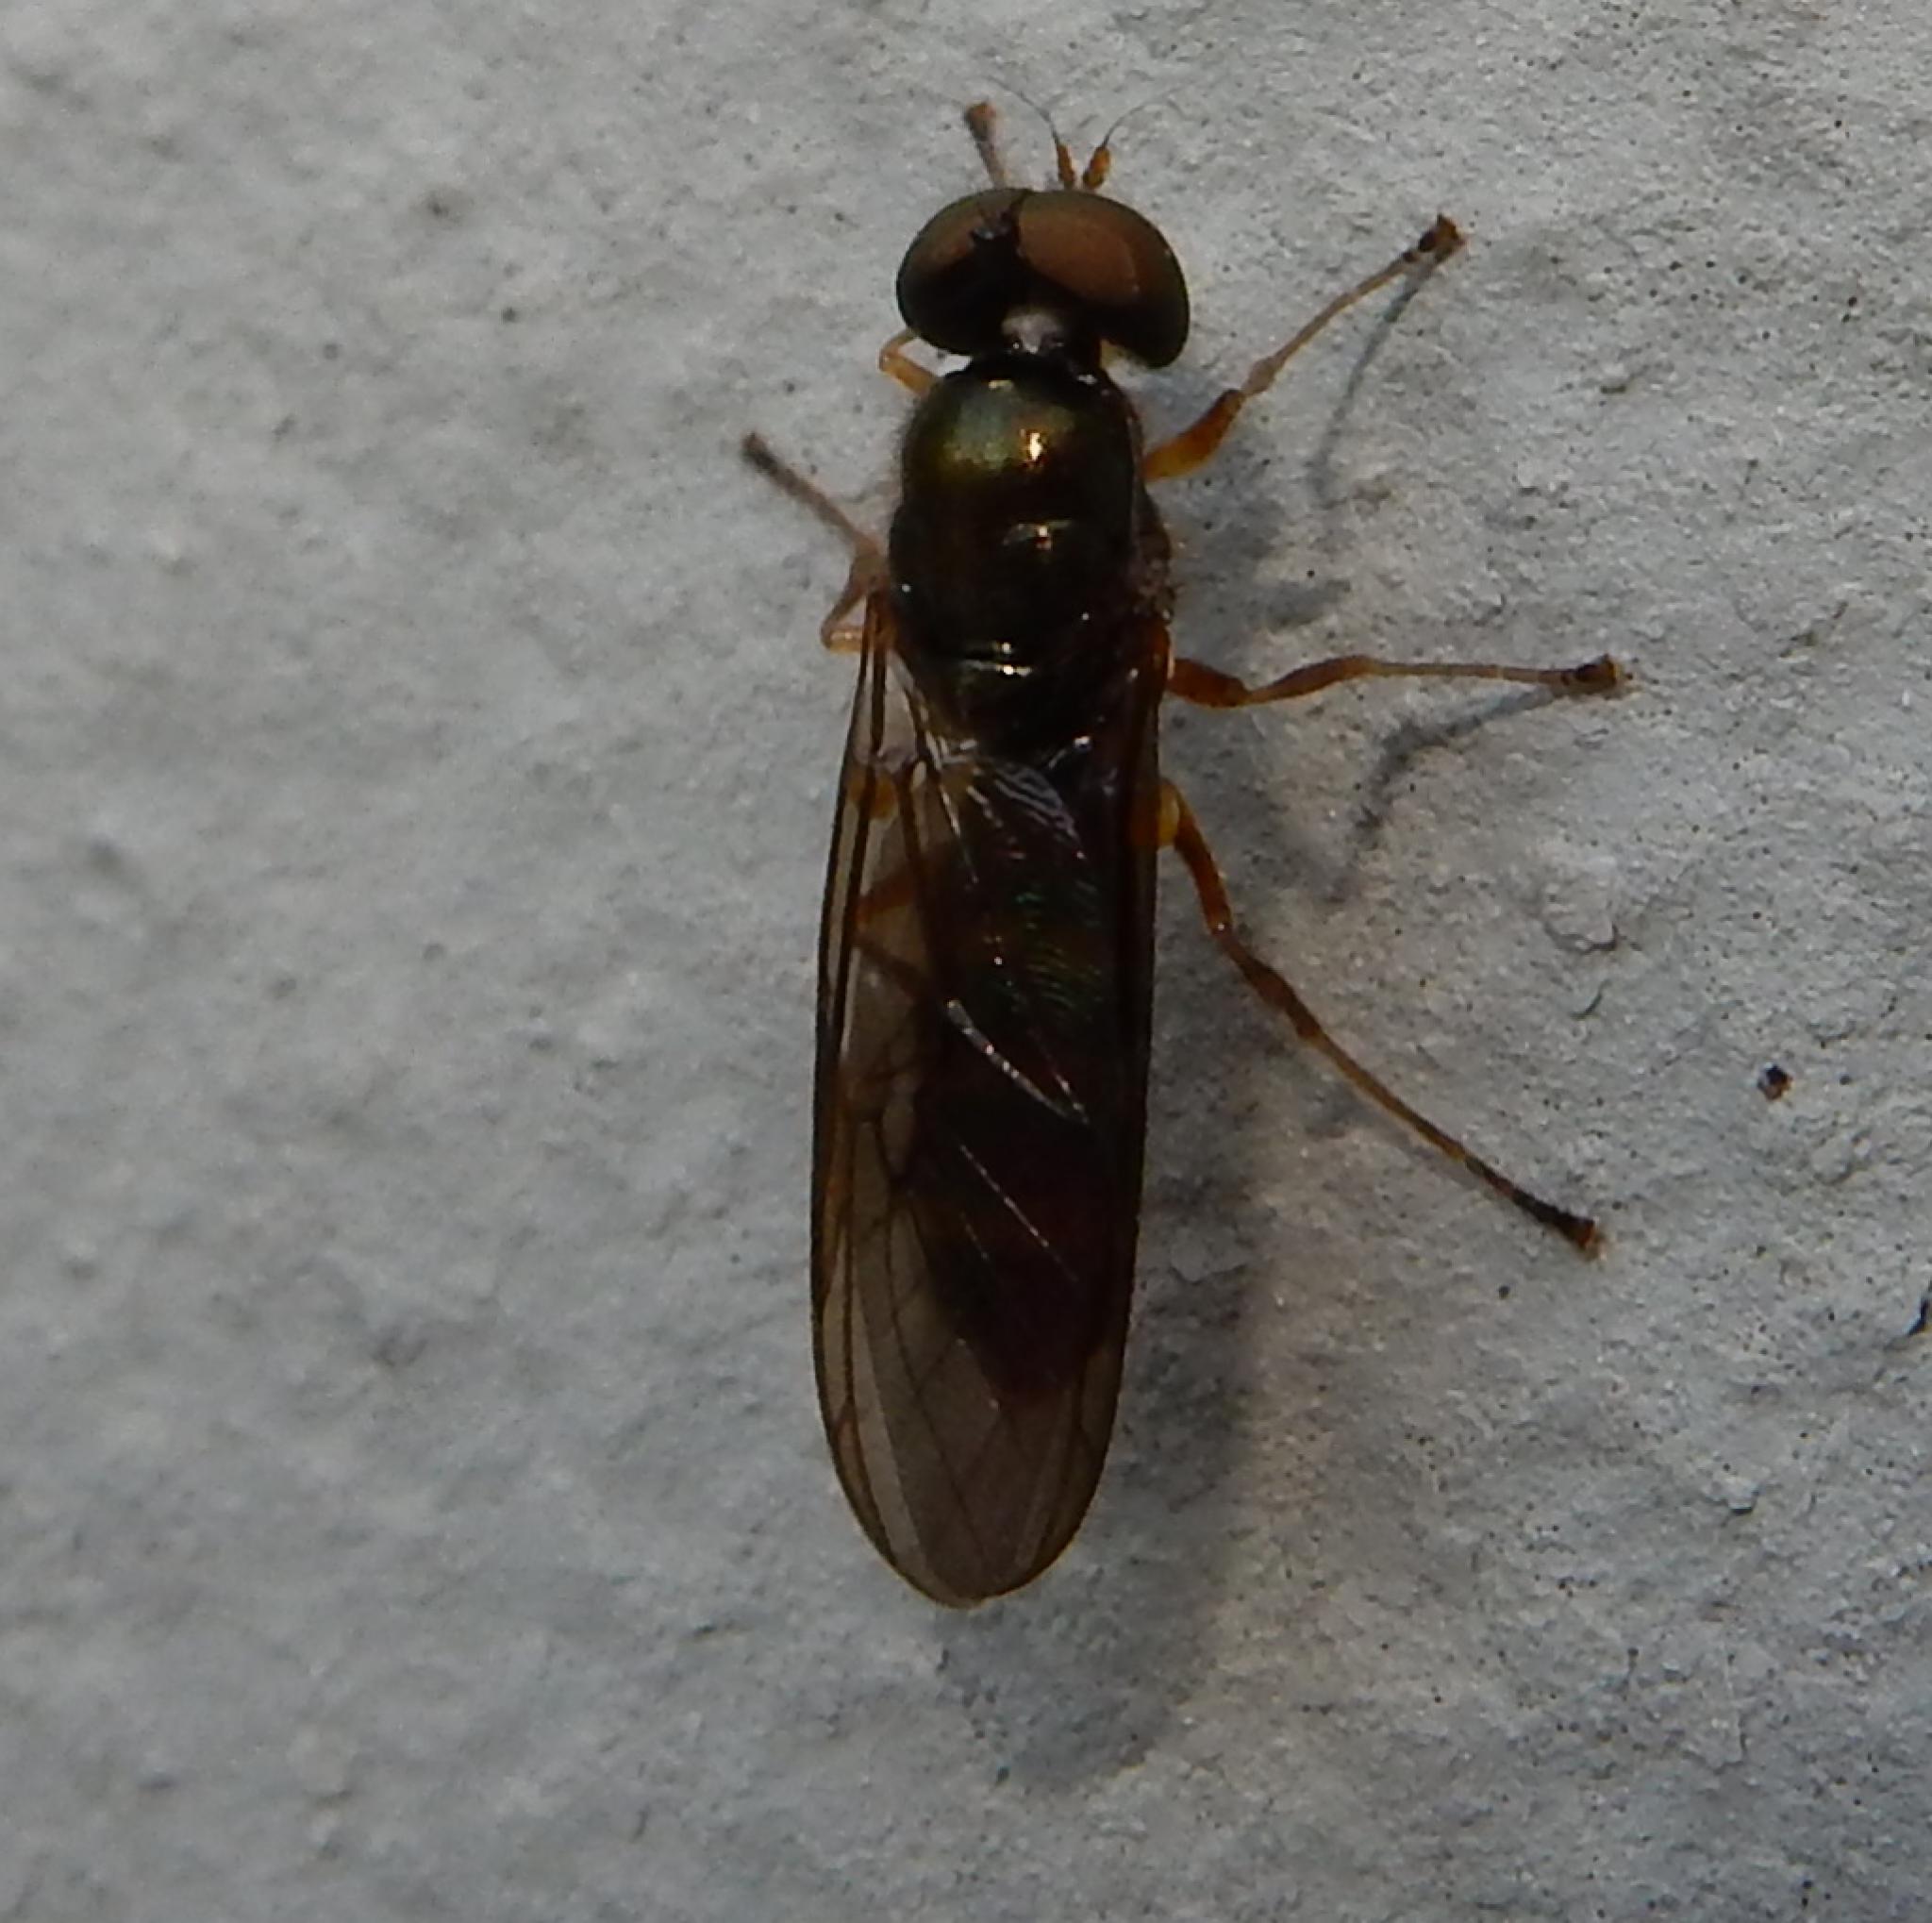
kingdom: Animalia
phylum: Arthropoda
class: Insecta
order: Diptera
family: Stratiomyidae
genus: Chloromyia
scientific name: Chloromyia cingulata
